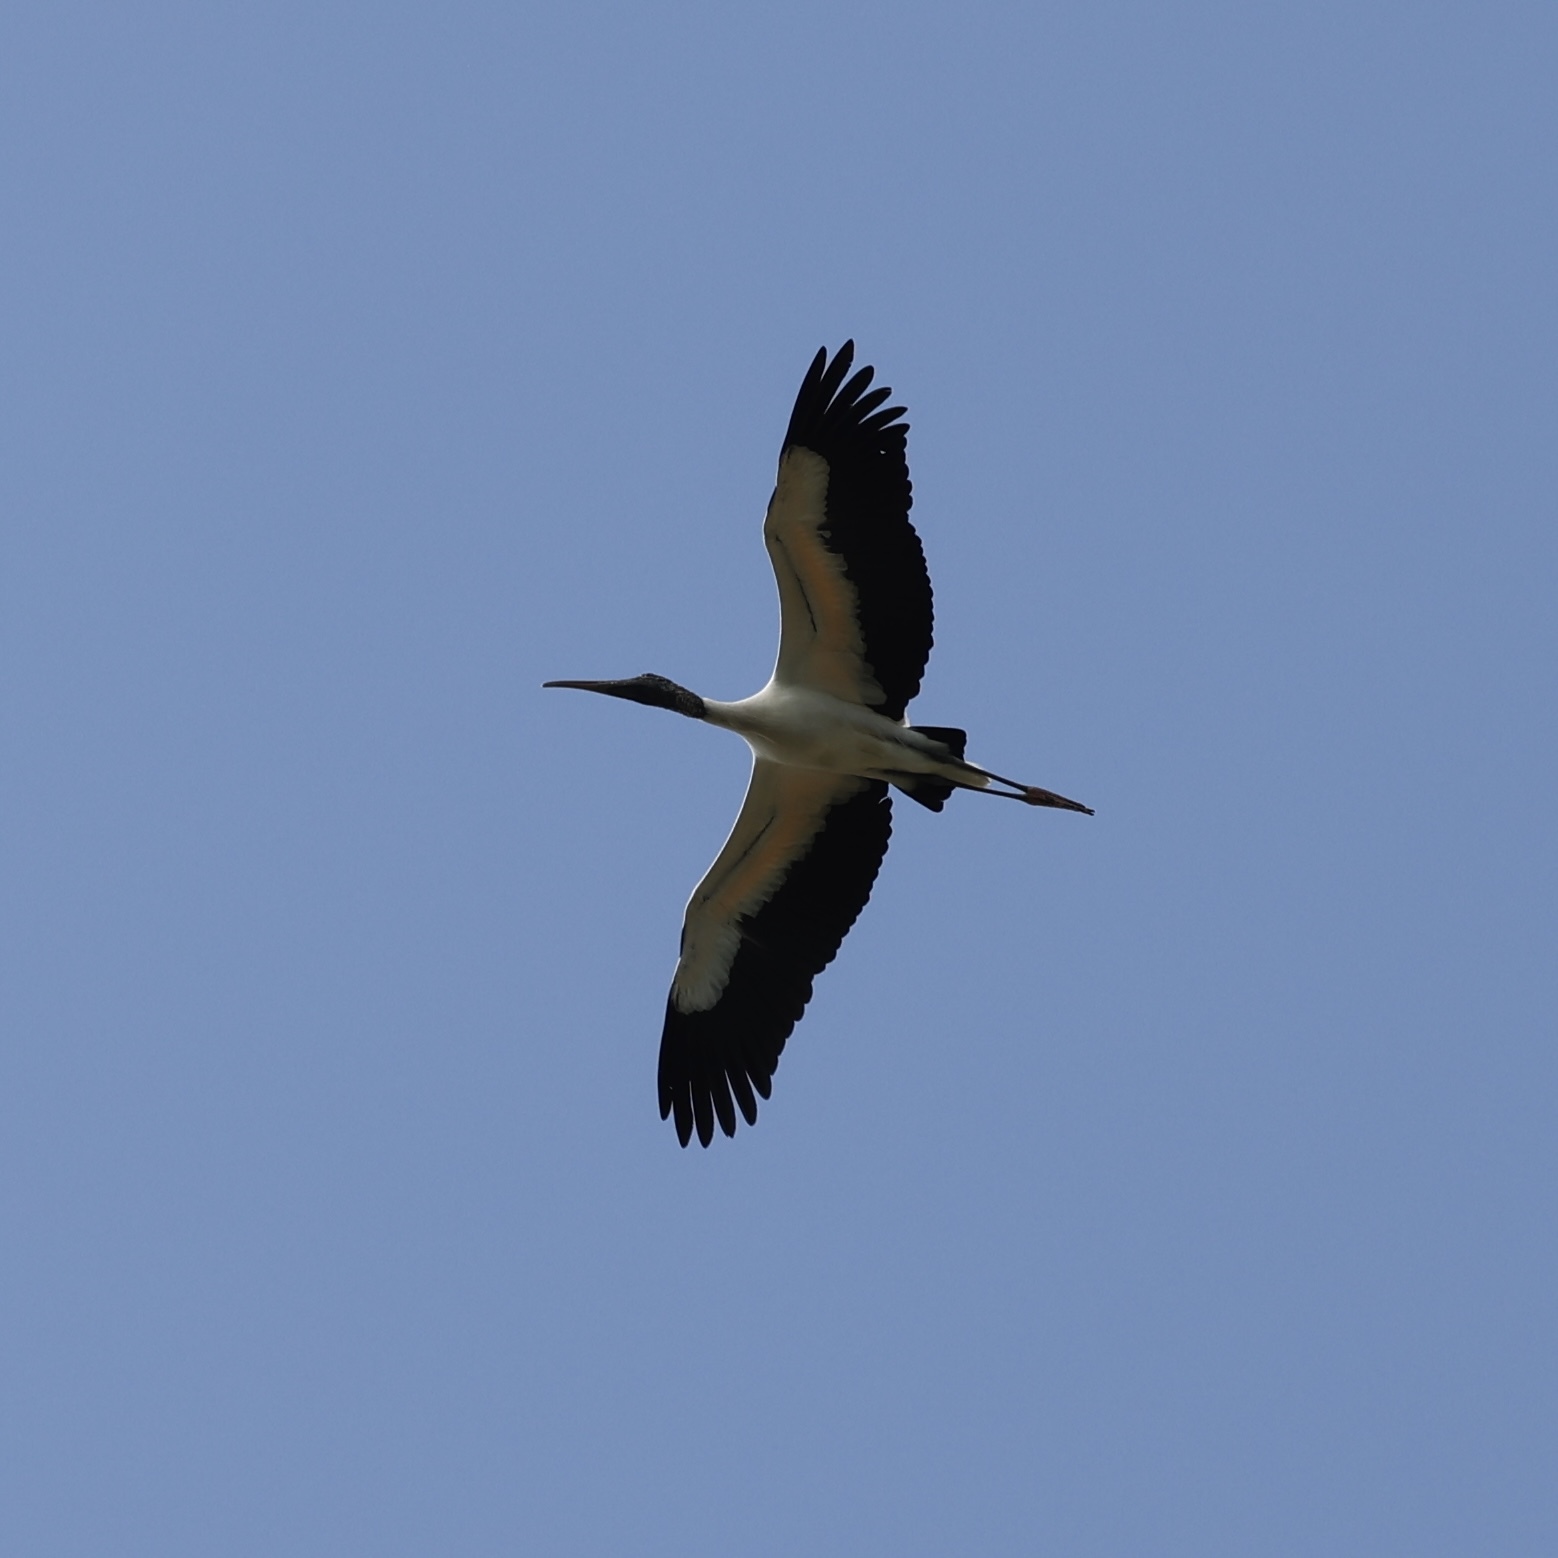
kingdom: Animalia
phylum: Chordata
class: Aves
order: Ciconiiformes
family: Ciconiidae
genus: Mycteria
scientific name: Mycteria americana
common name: Wood stork
